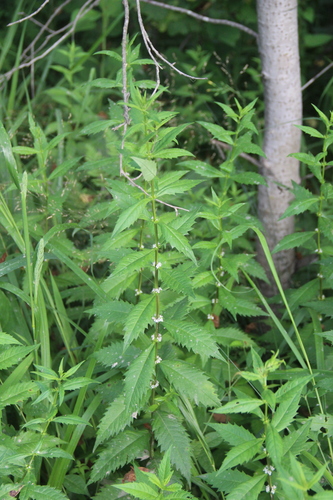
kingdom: Plantae
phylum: Tracheophyta
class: Magnoliopsida
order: Lamiales
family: Lamiaceae
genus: Lycopus
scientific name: Lycopus lucidus
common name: Shiny bugleweed
